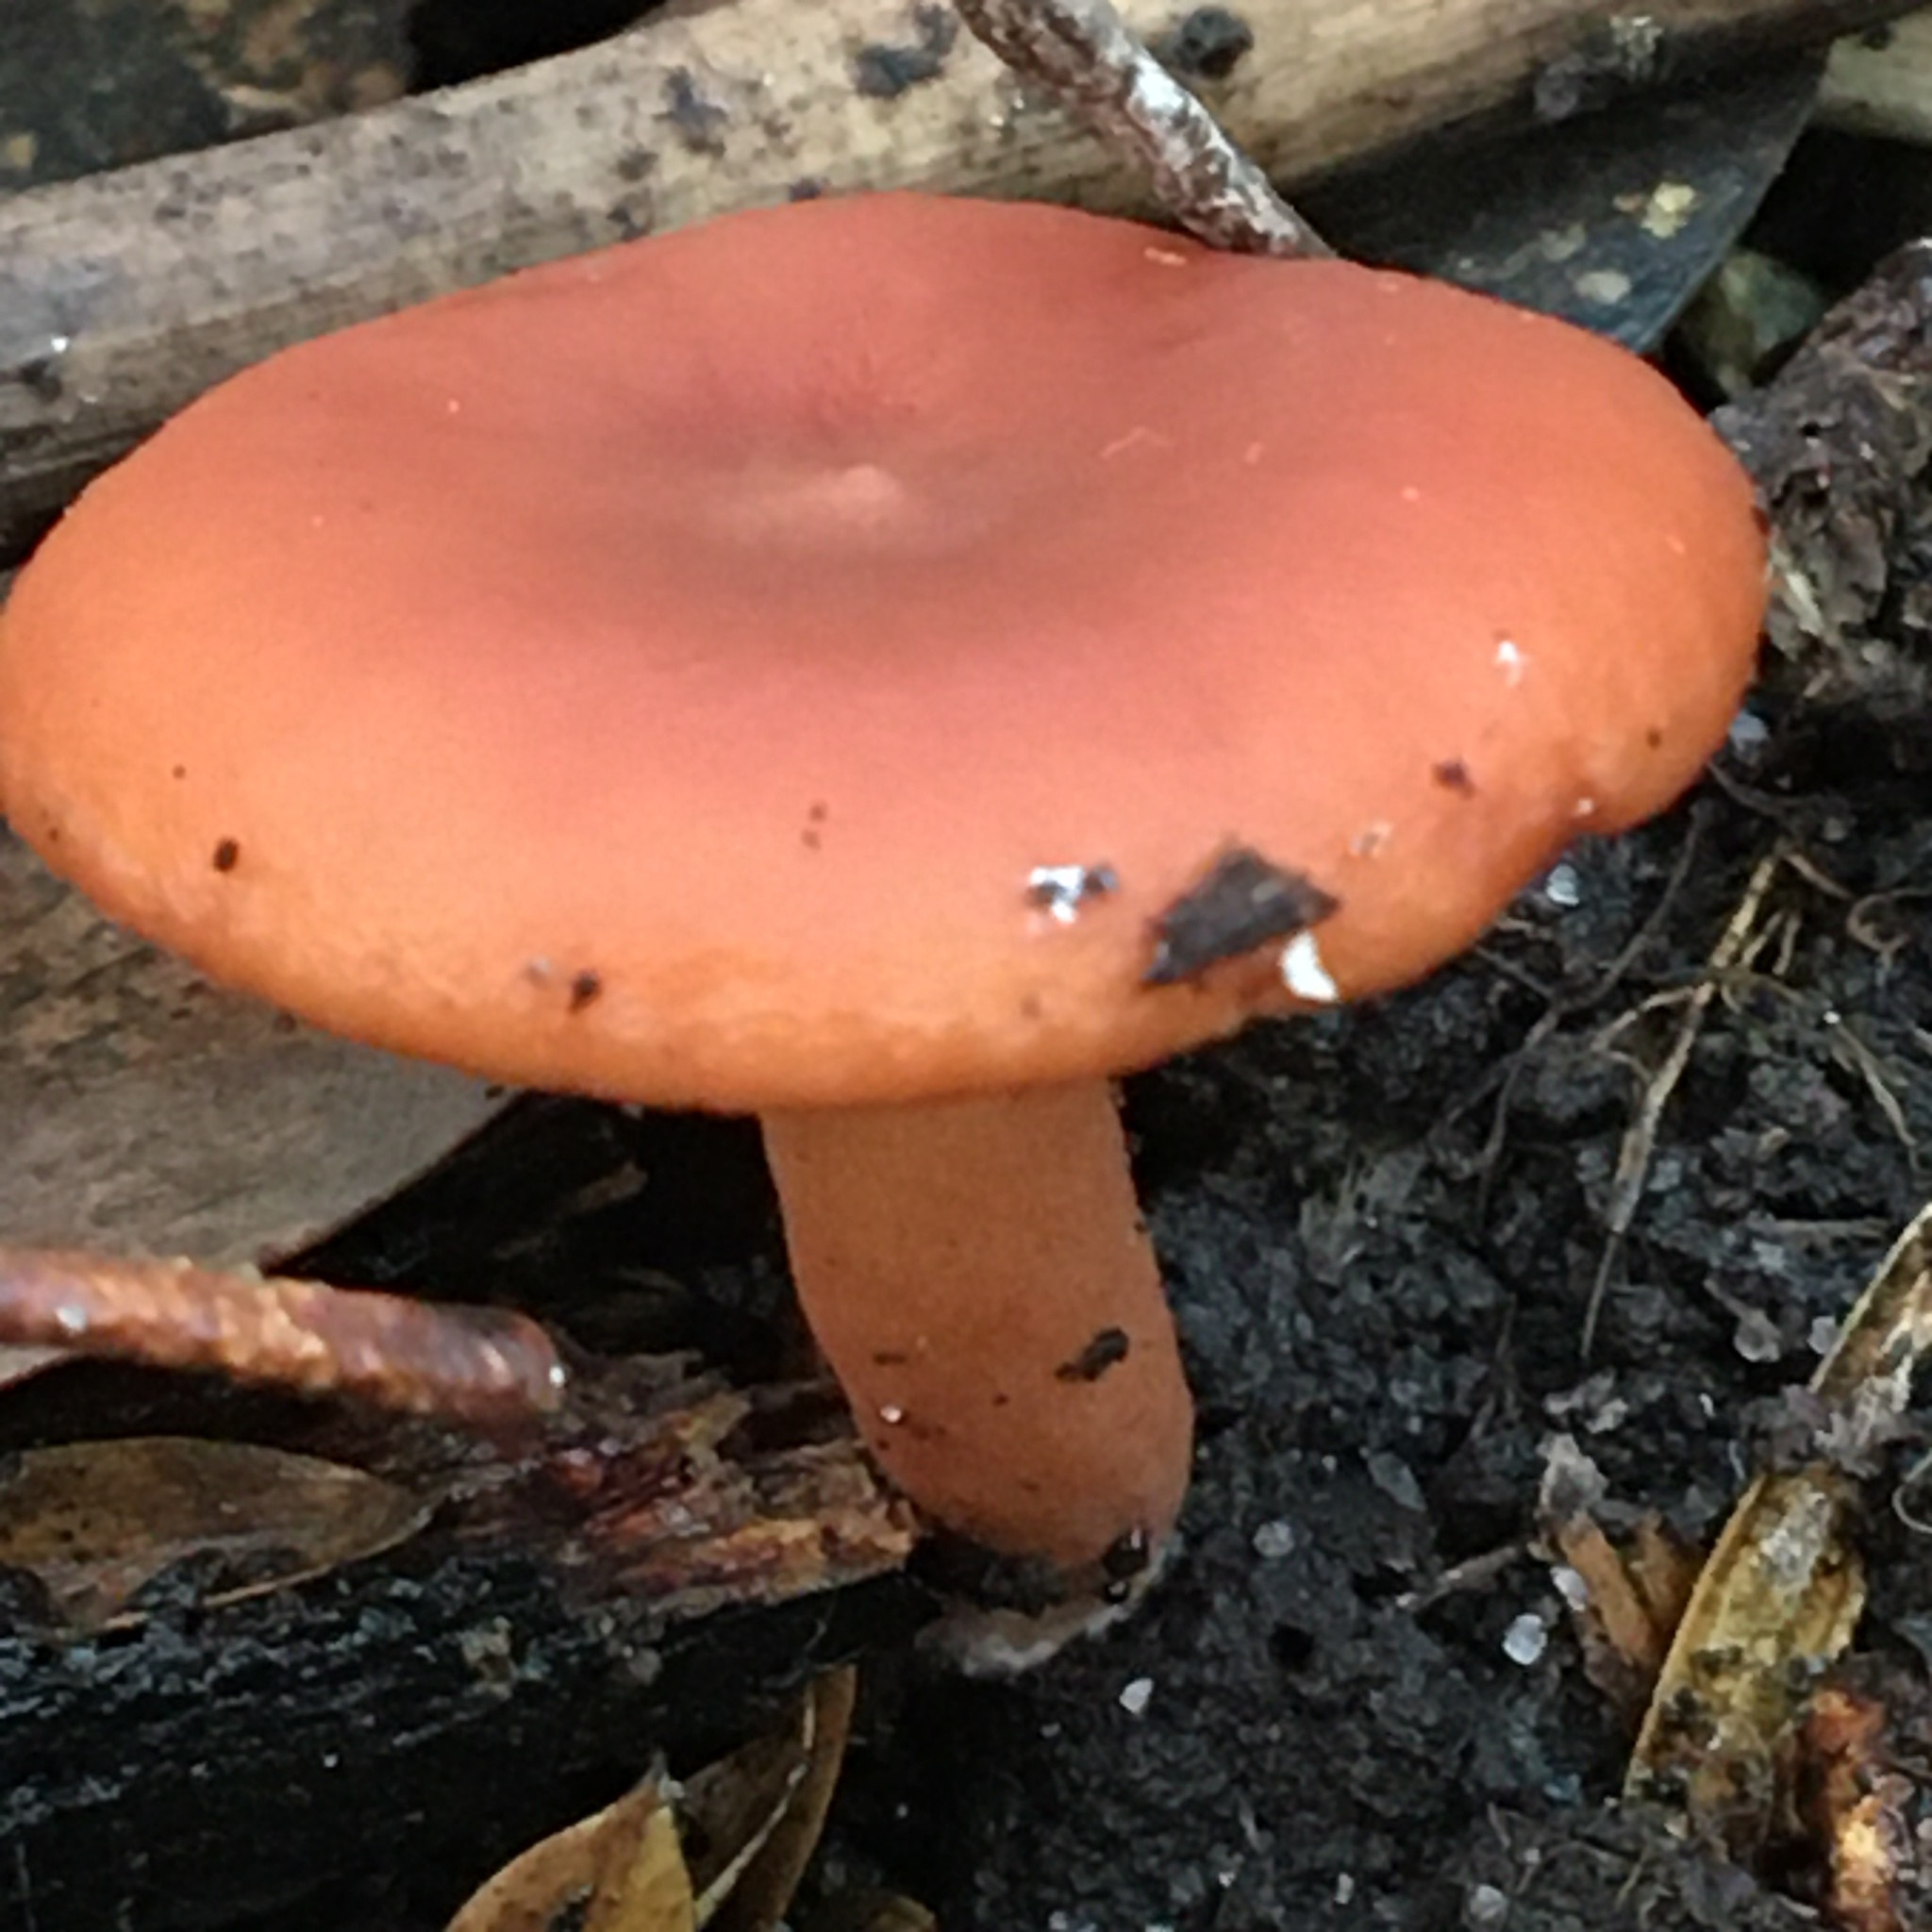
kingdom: Fungi
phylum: Basidiomycota
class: Agaricomycetes
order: Russulales
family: Russulaceae
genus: Lactarius
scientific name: Lactarius eucalypti
